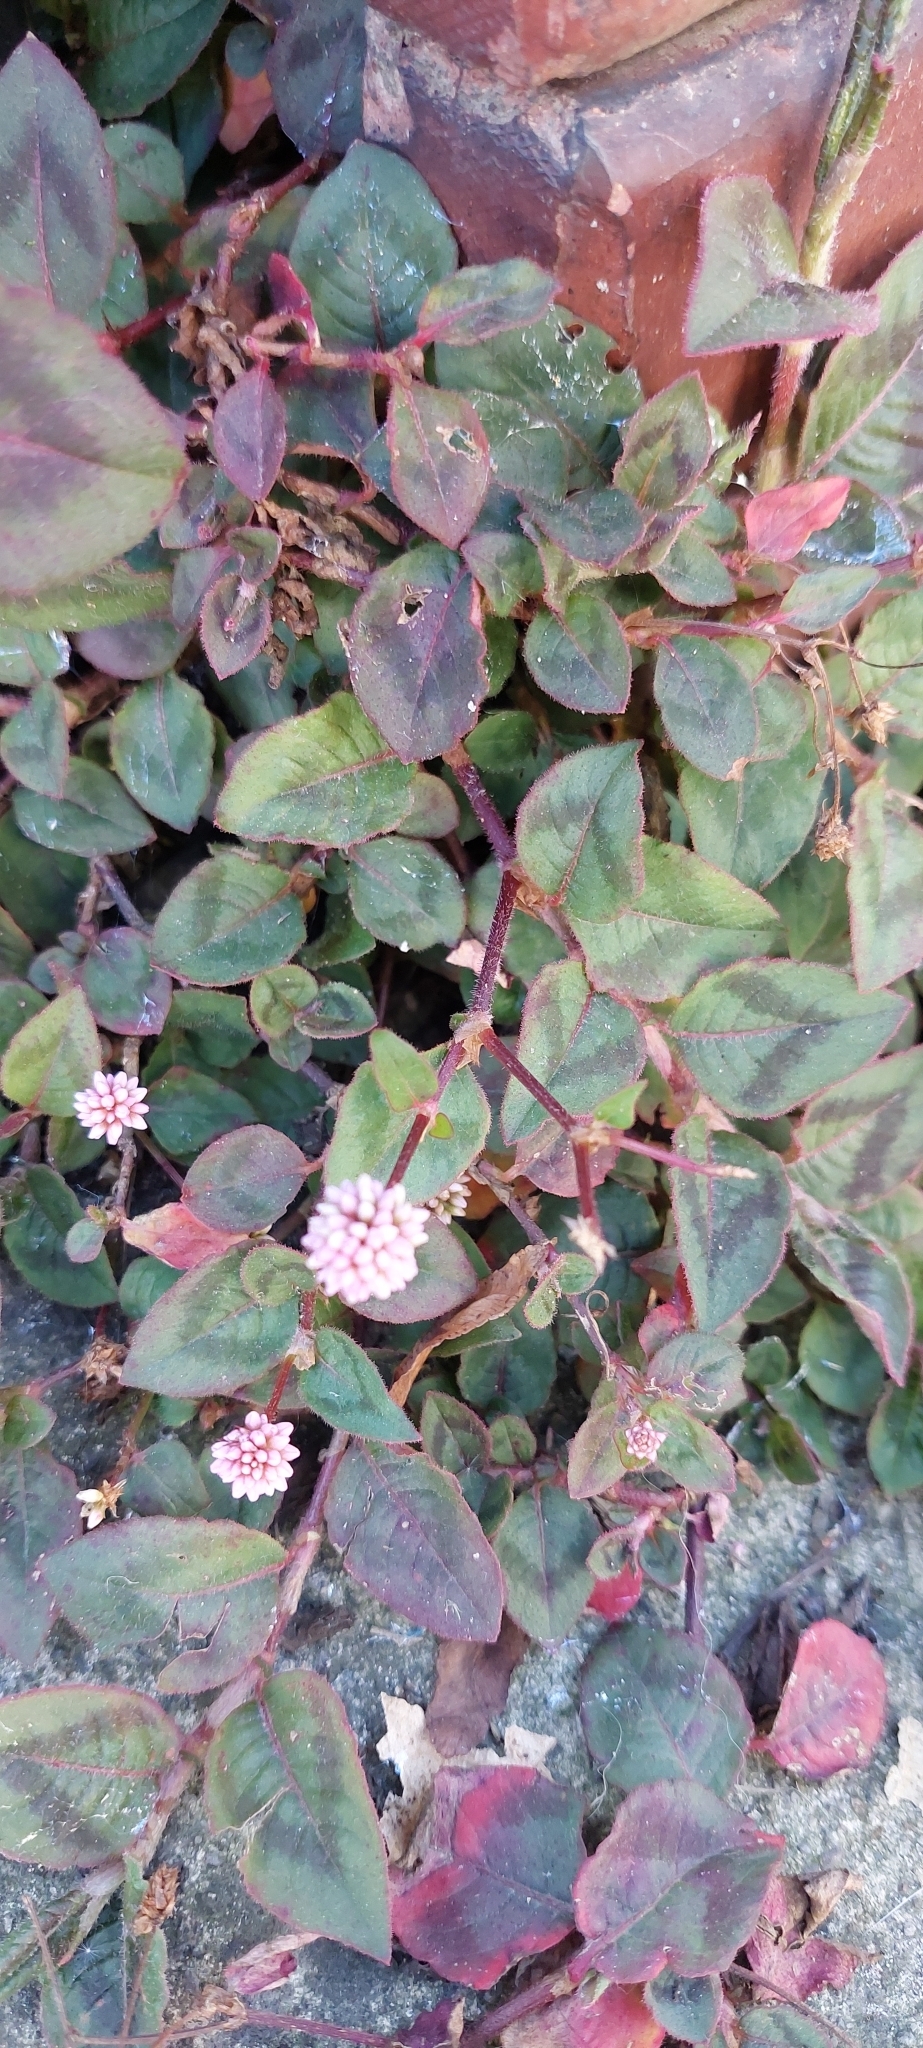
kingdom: Plantae
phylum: Tracheophyta
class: Magnoliopsida
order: Caryophyllales
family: Polygonaceae
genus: Persicaria
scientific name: Persicaria capitata
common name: Pinkhead smartweed
